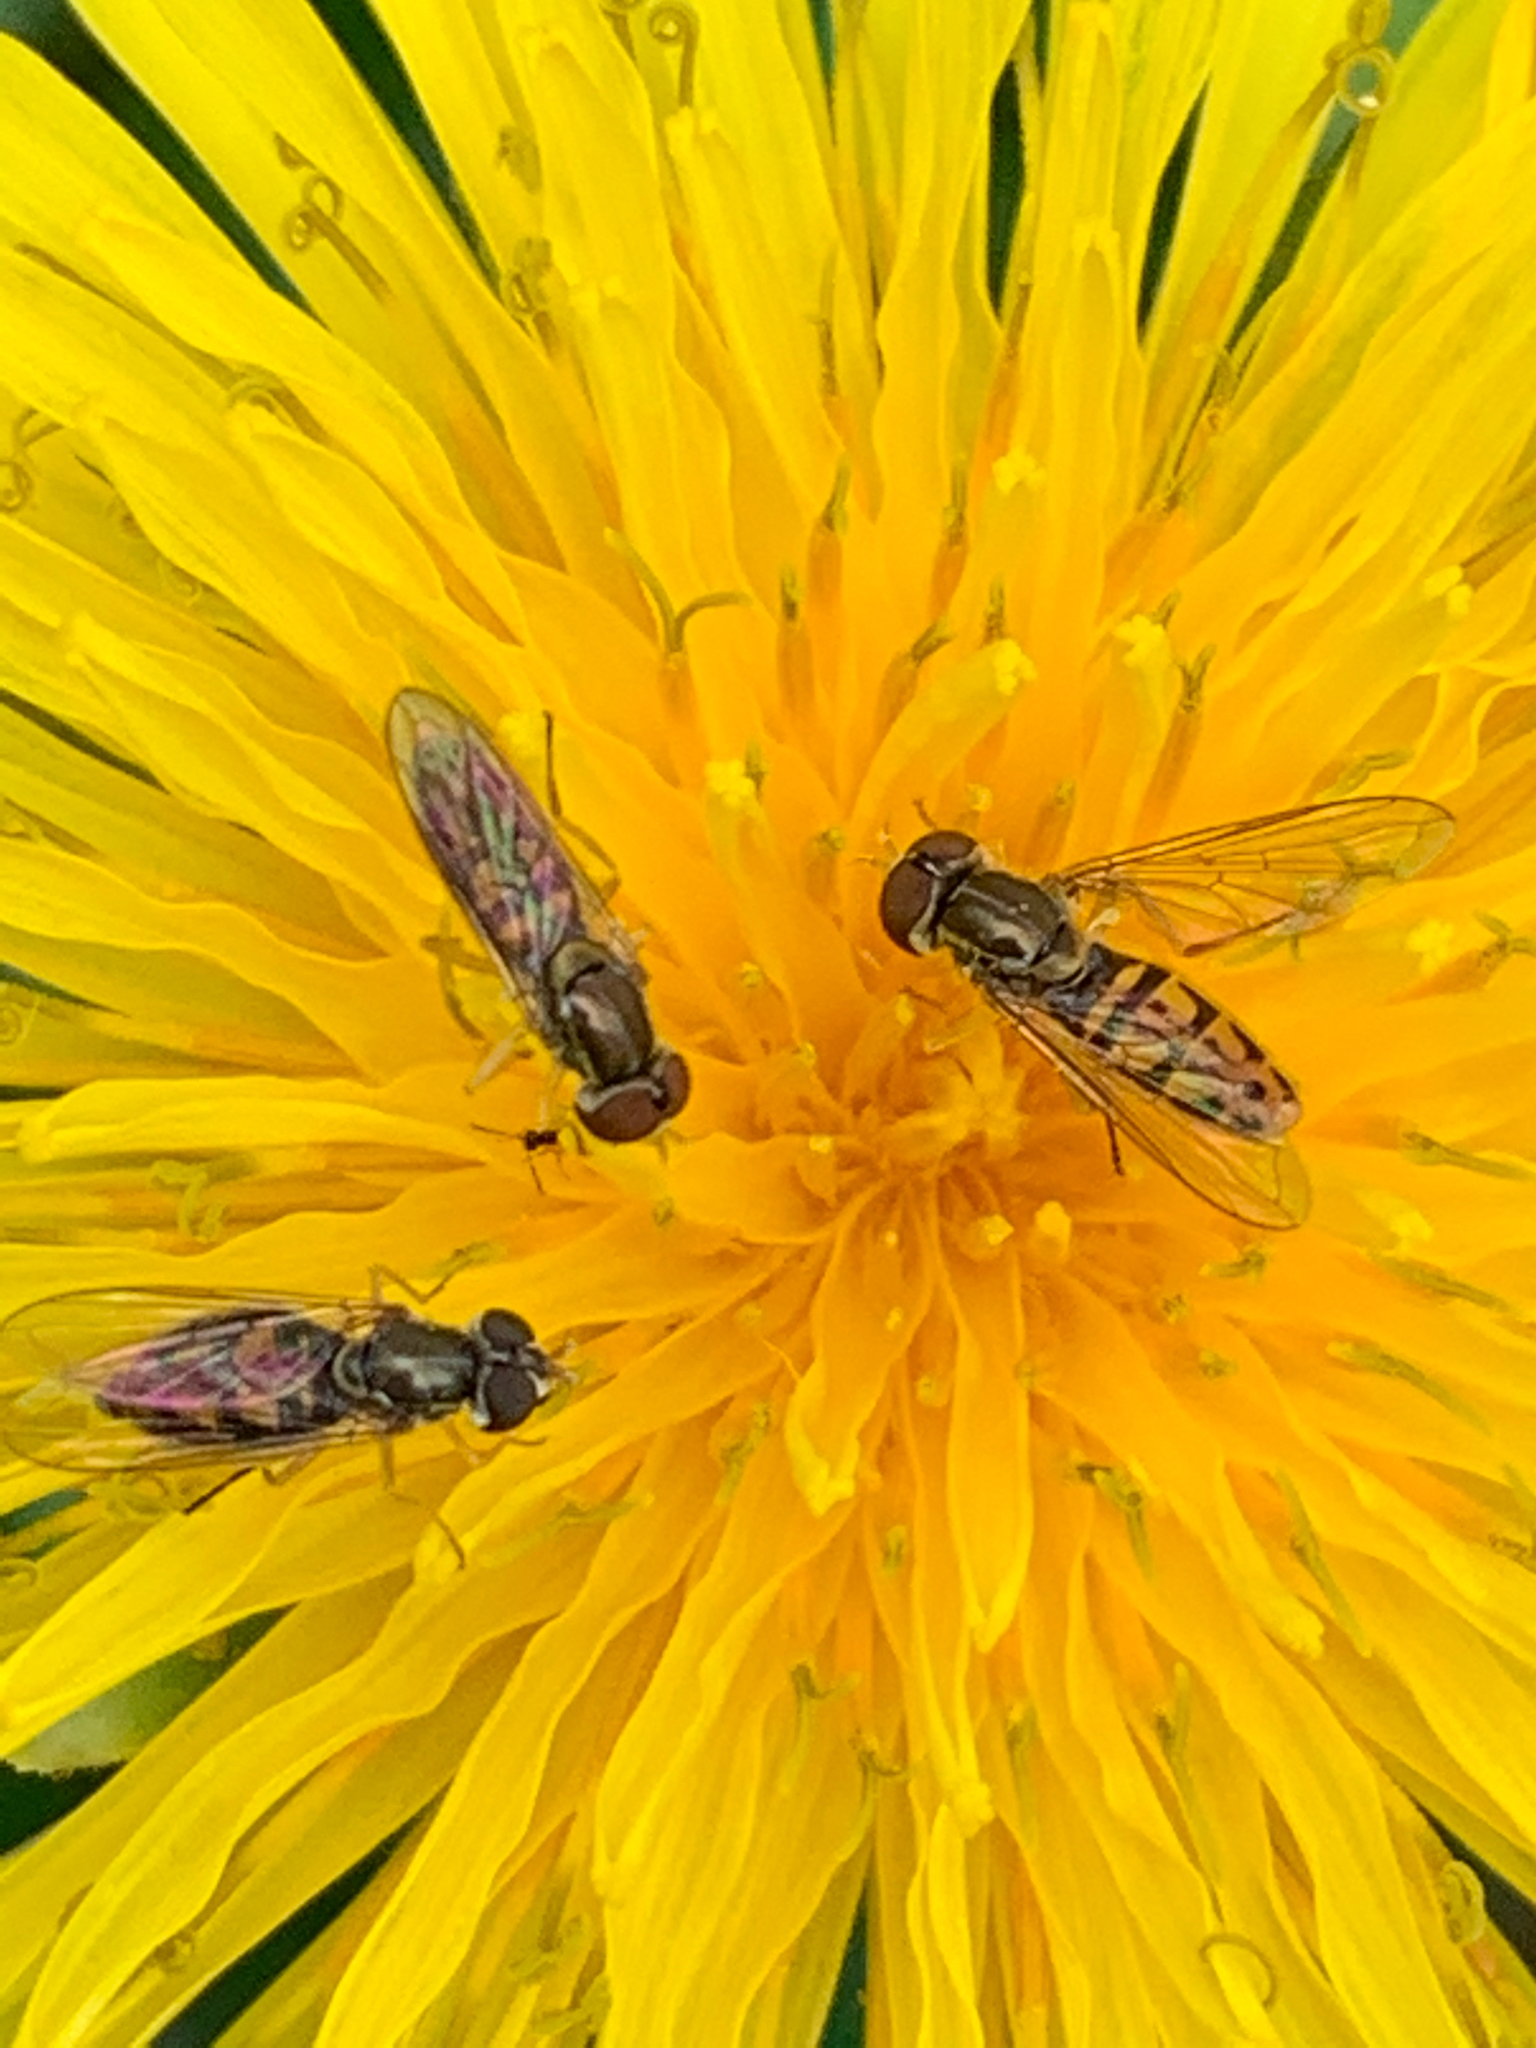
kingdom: Animalia
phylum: Arthropoda
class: Insecta
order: Diptera
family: Syrphidae
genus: Toxomerus
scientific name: Toxomerus marginatus
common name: Syrphid fly
